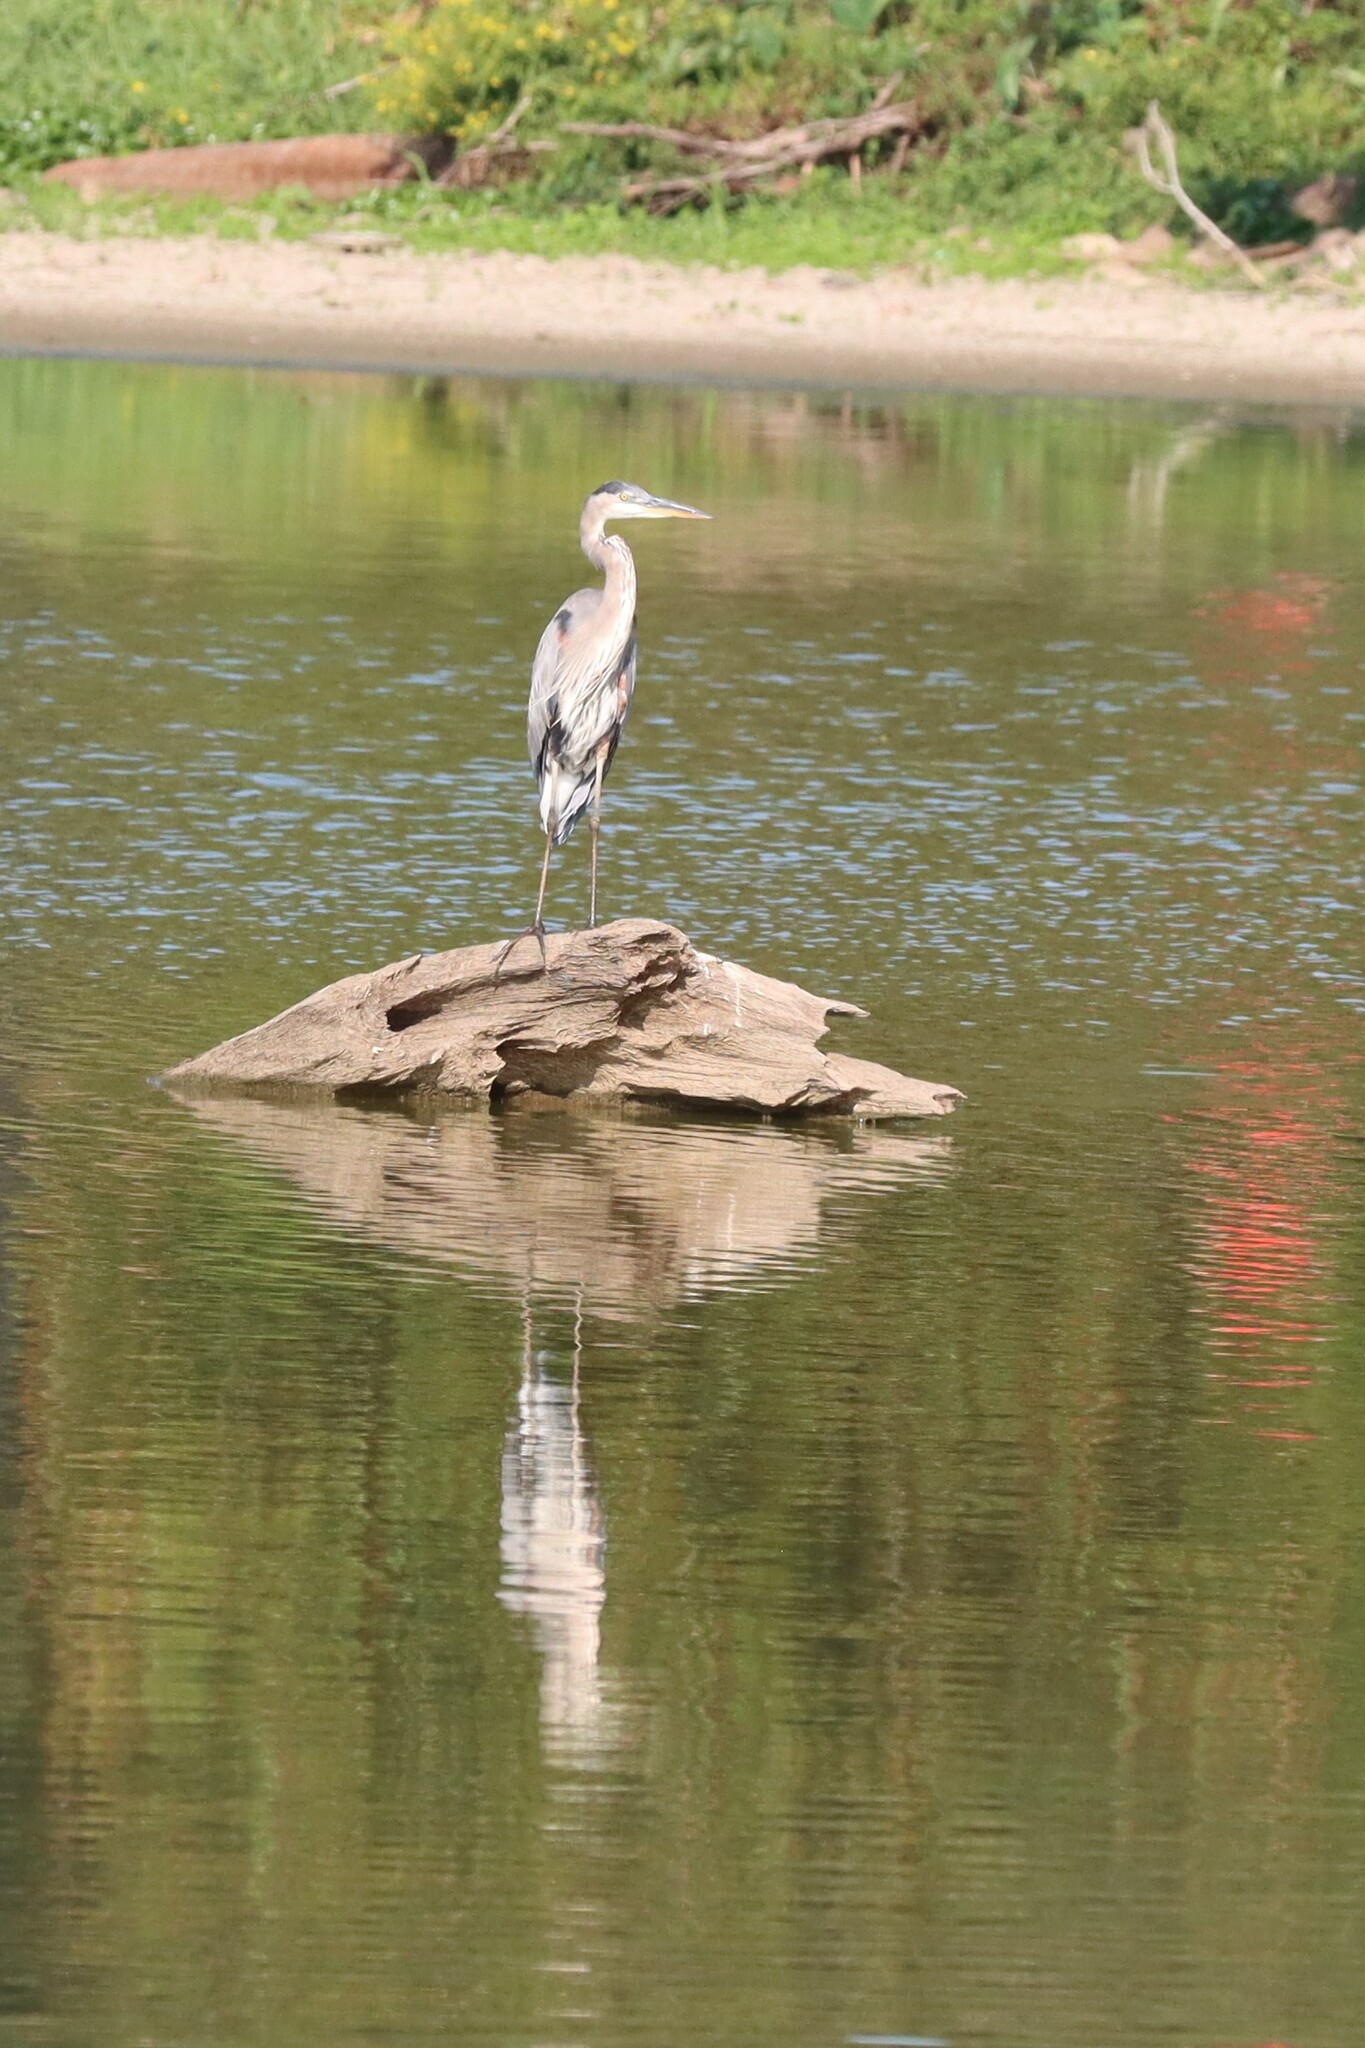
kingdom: Animalia
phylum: Chordata
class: Aves
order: Pelecaniformes
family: Ardeidae
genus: Ardea
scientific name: Ardea herodias
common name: Great blue heron
